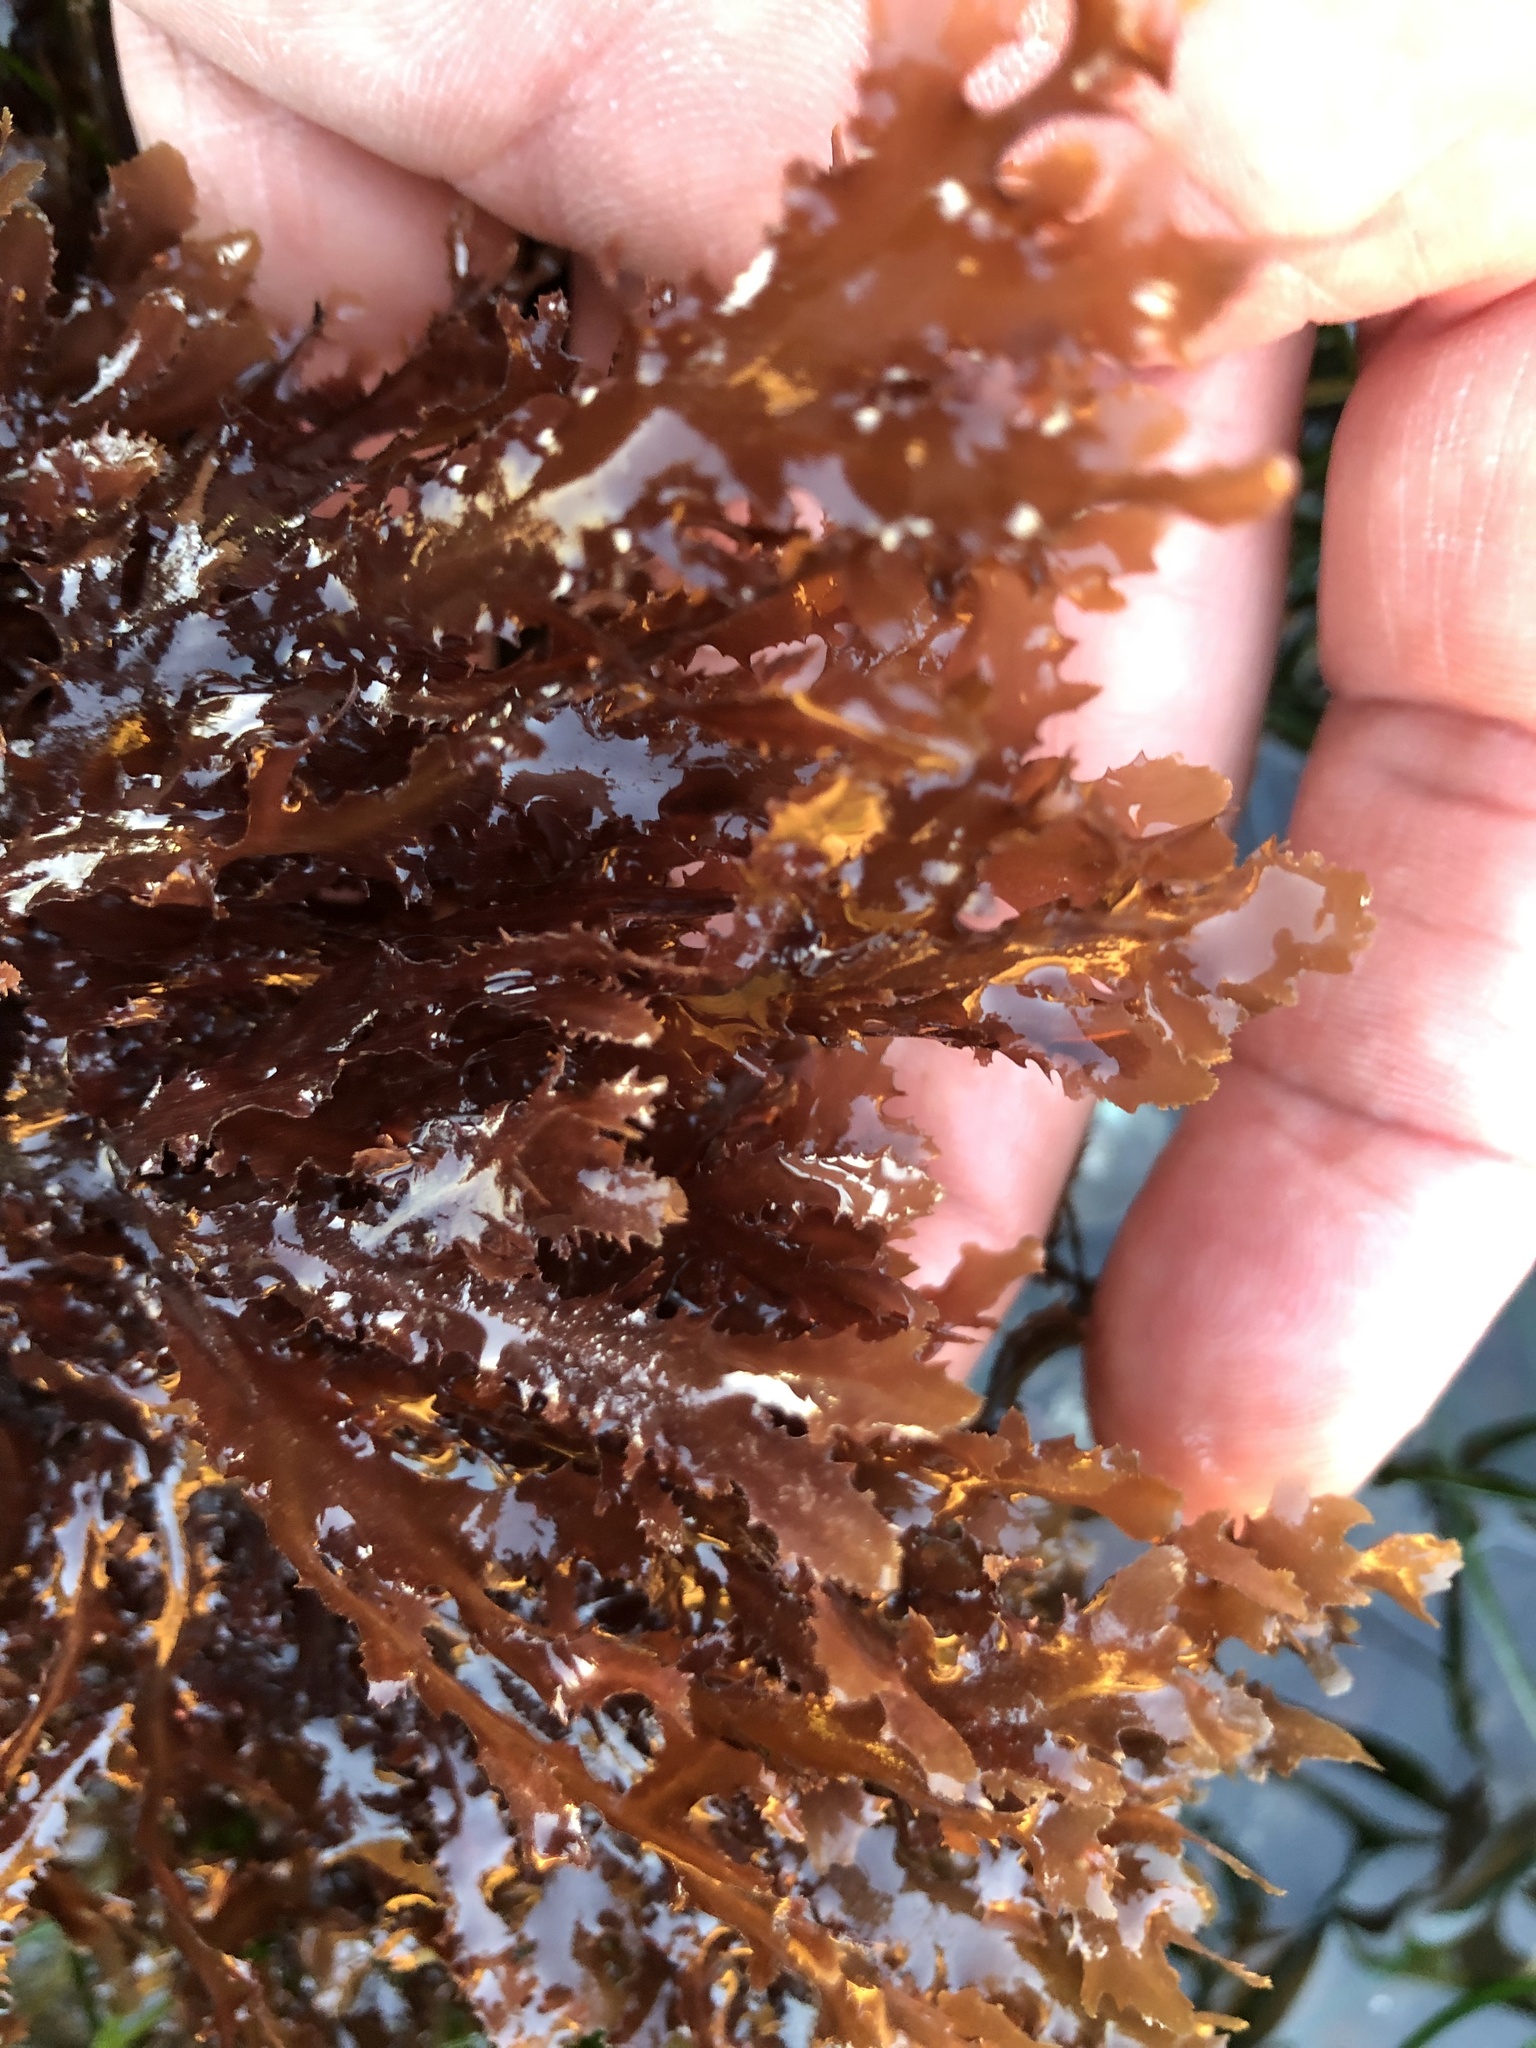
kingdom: Plantae
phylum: Rhodophyta
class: Florideophyceae
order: Ceramiales
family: Delesseriaceae
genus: Nienburgia
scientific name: Nienburgia andersoniana
